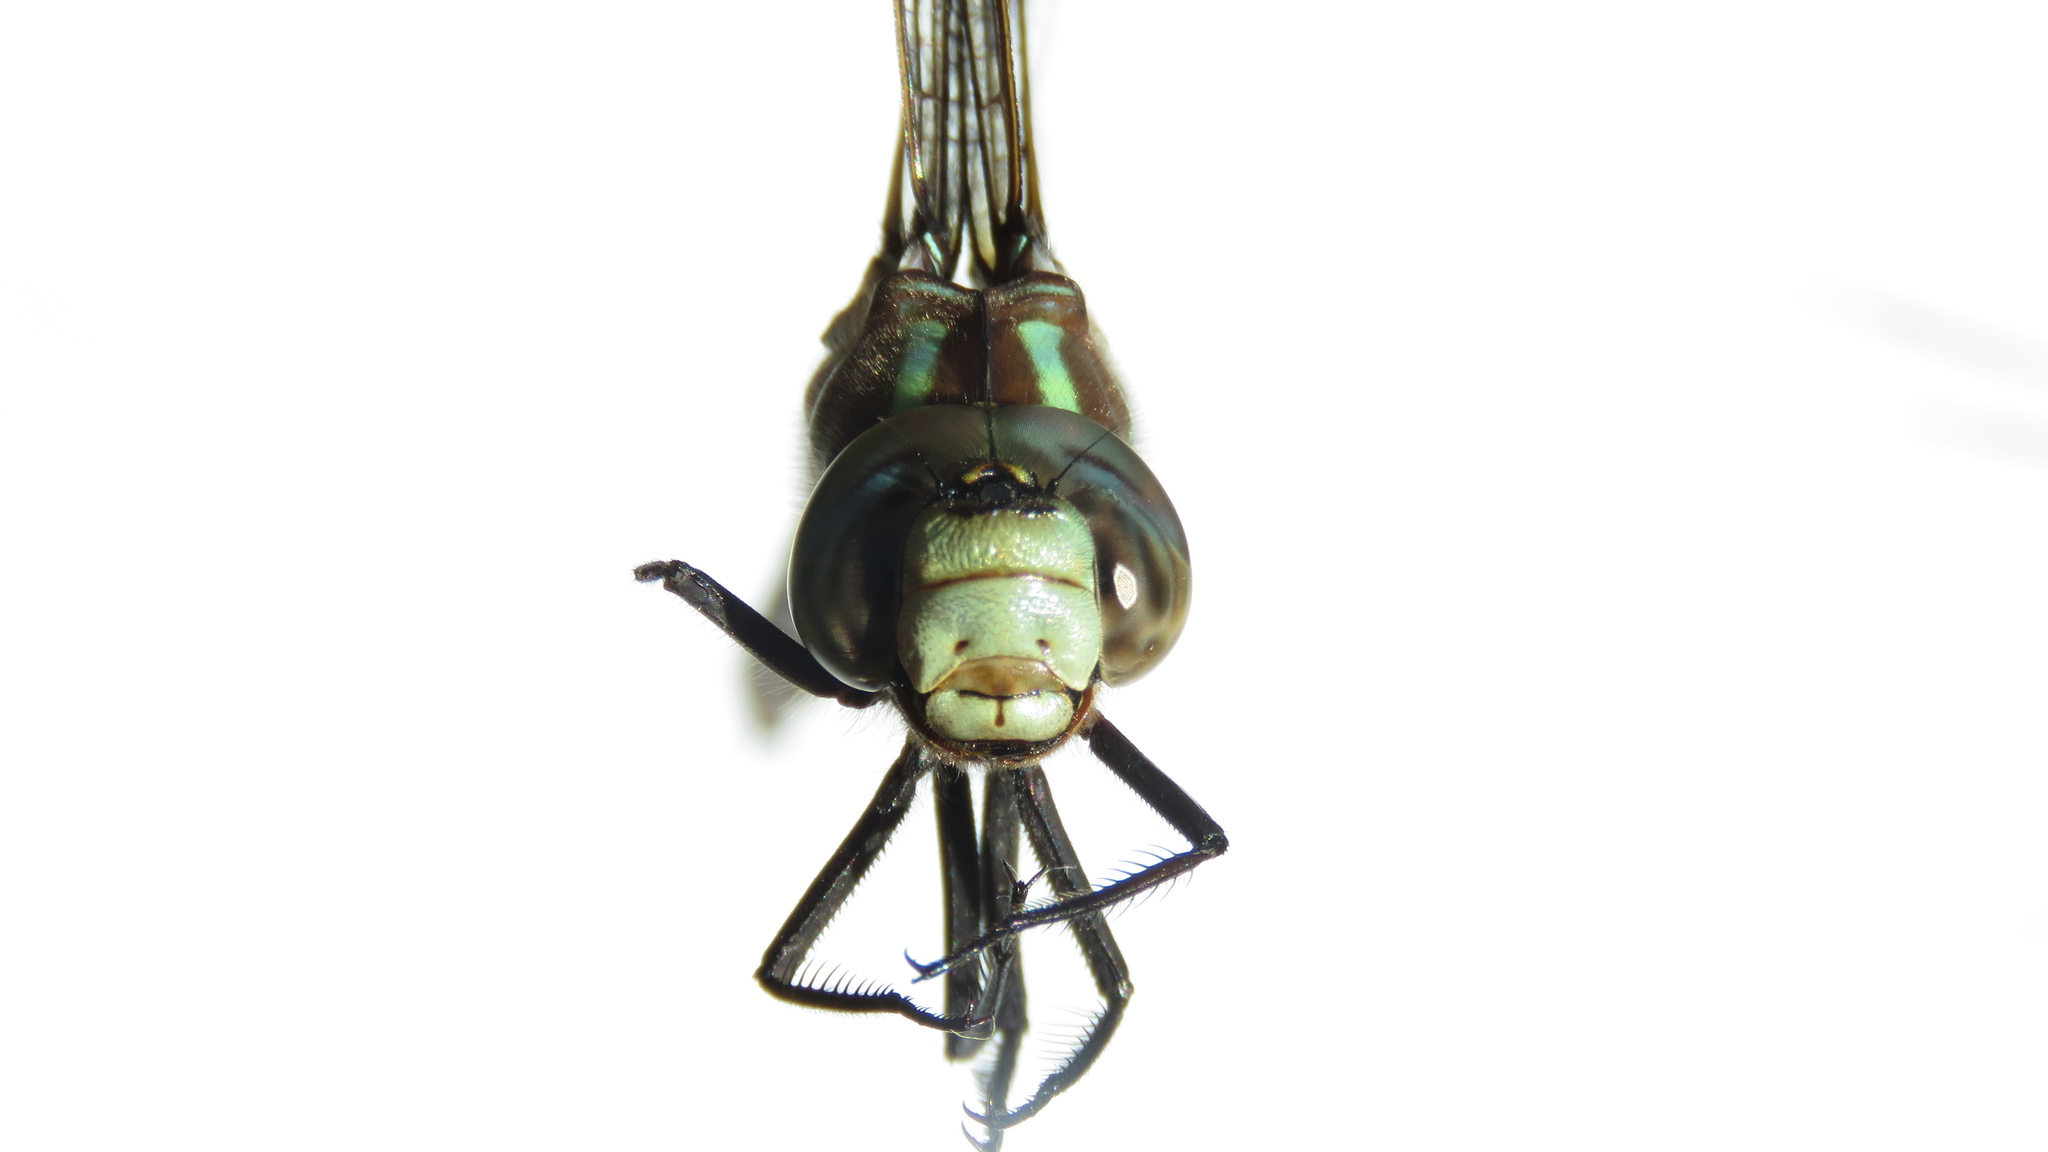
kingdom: Animalia
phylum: Arthropoda
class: Insecta
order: Odonata
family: Aeshnidae
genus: Aeshna
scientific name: Aeshna constricta
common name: Lance-tipped darner
